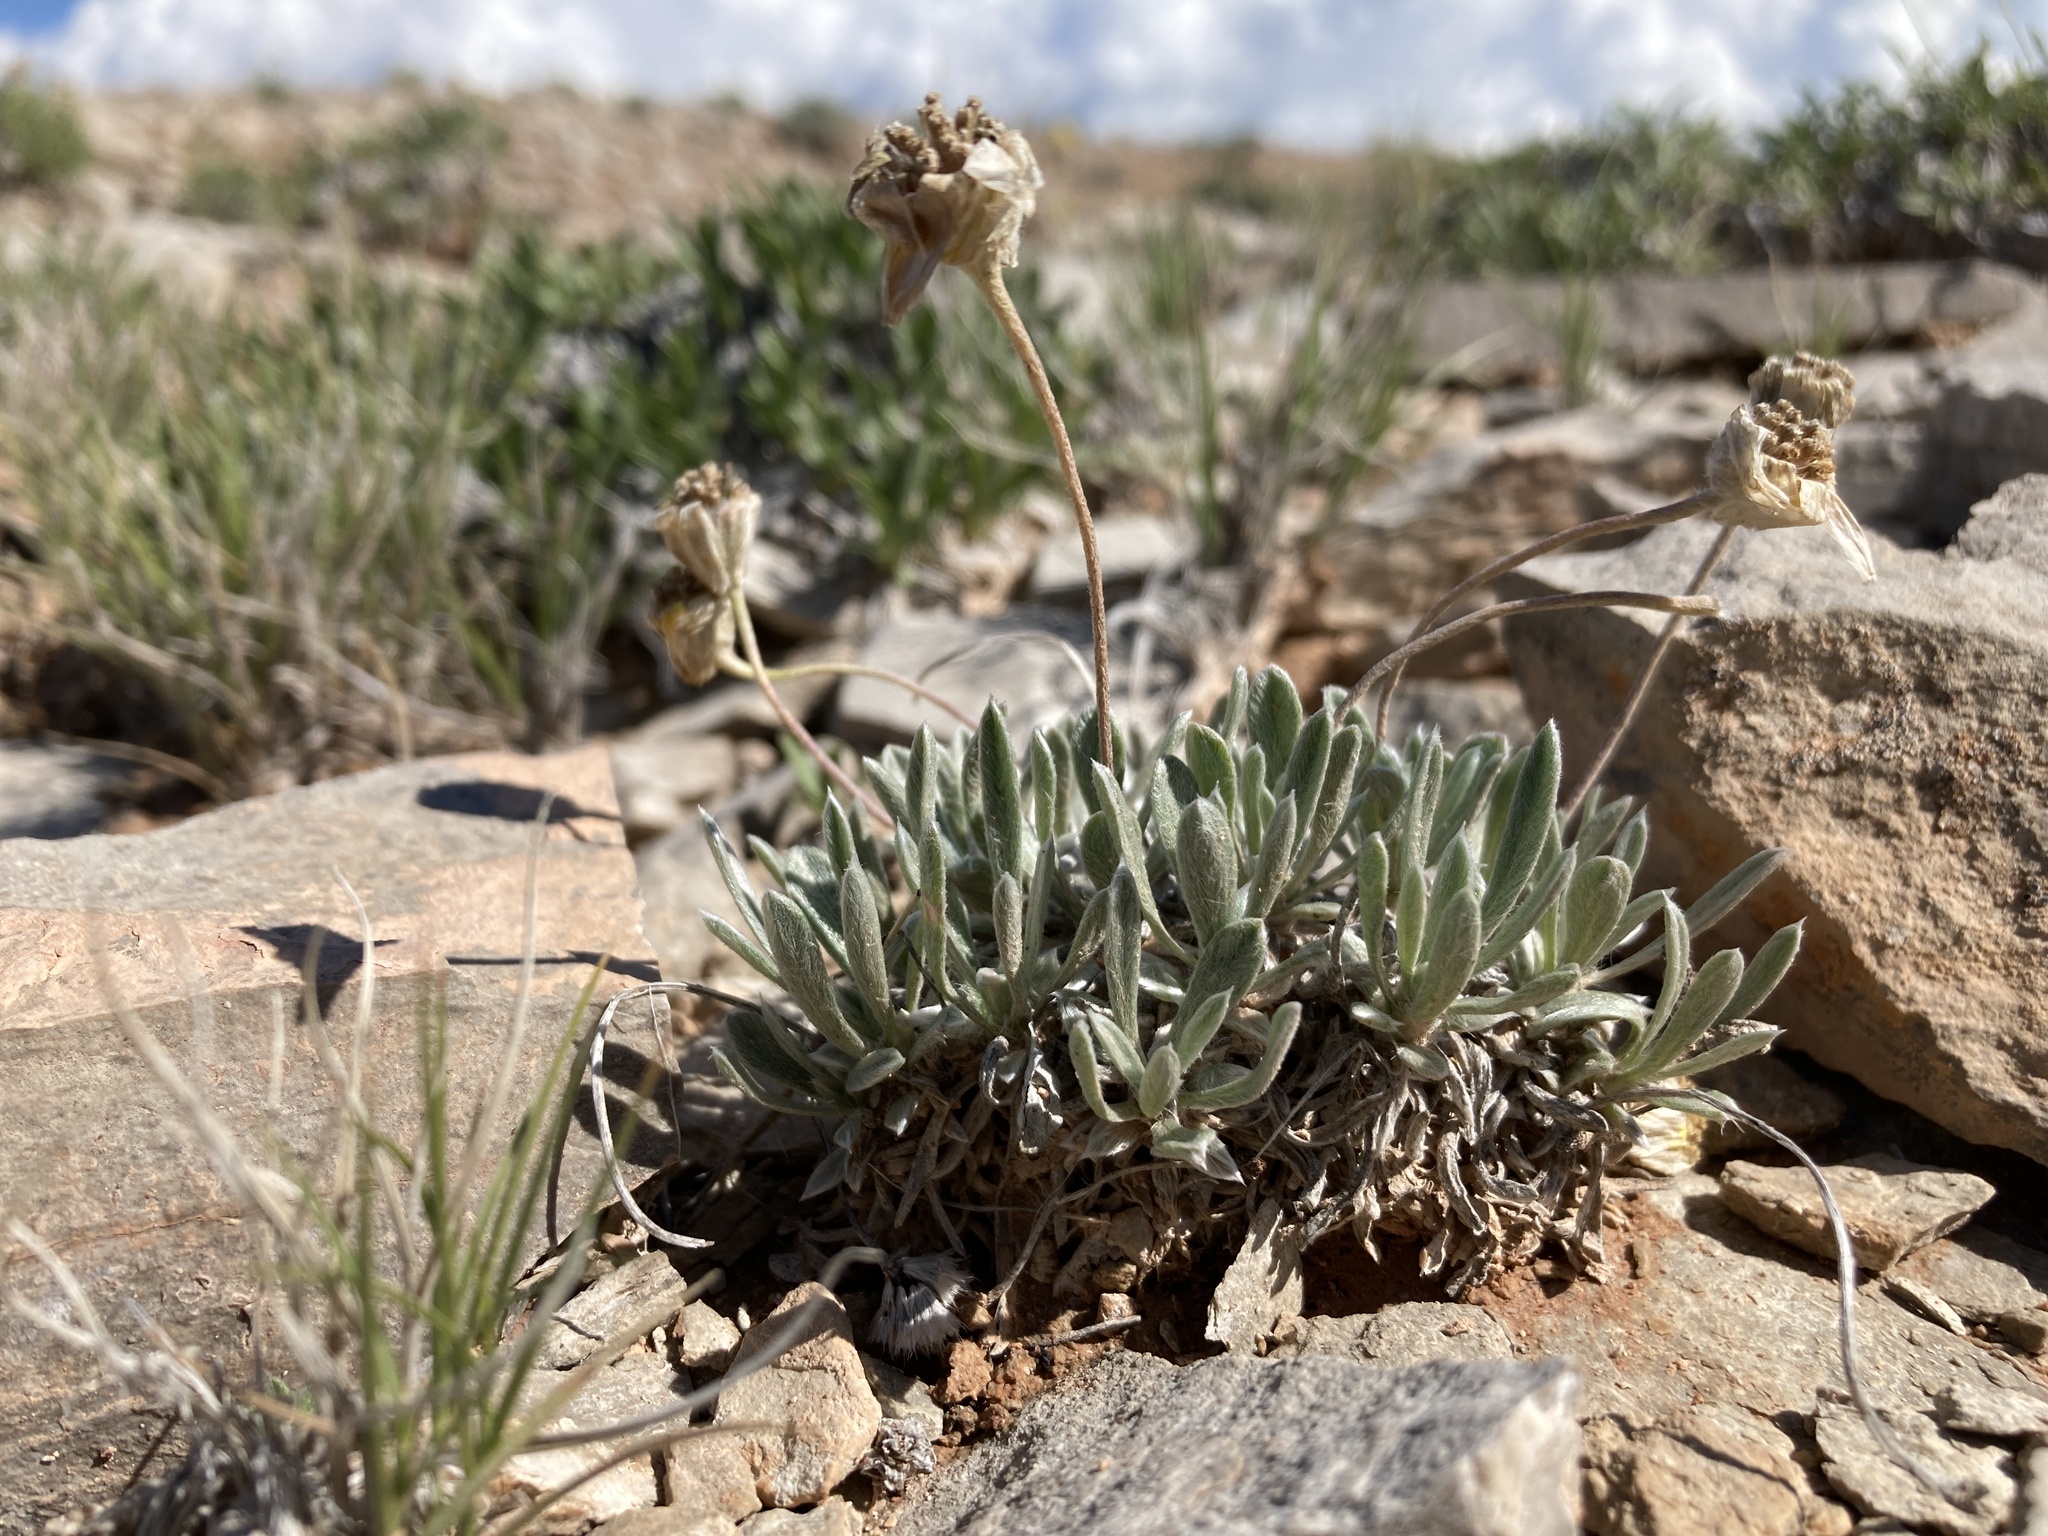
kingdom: Plantae
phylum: Tracheophyta
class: Magnoliopsida
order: Asterales
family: Asteraceae
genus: Tetraneuris
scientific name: Tetraneuris acaulis
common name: Butte marigold
